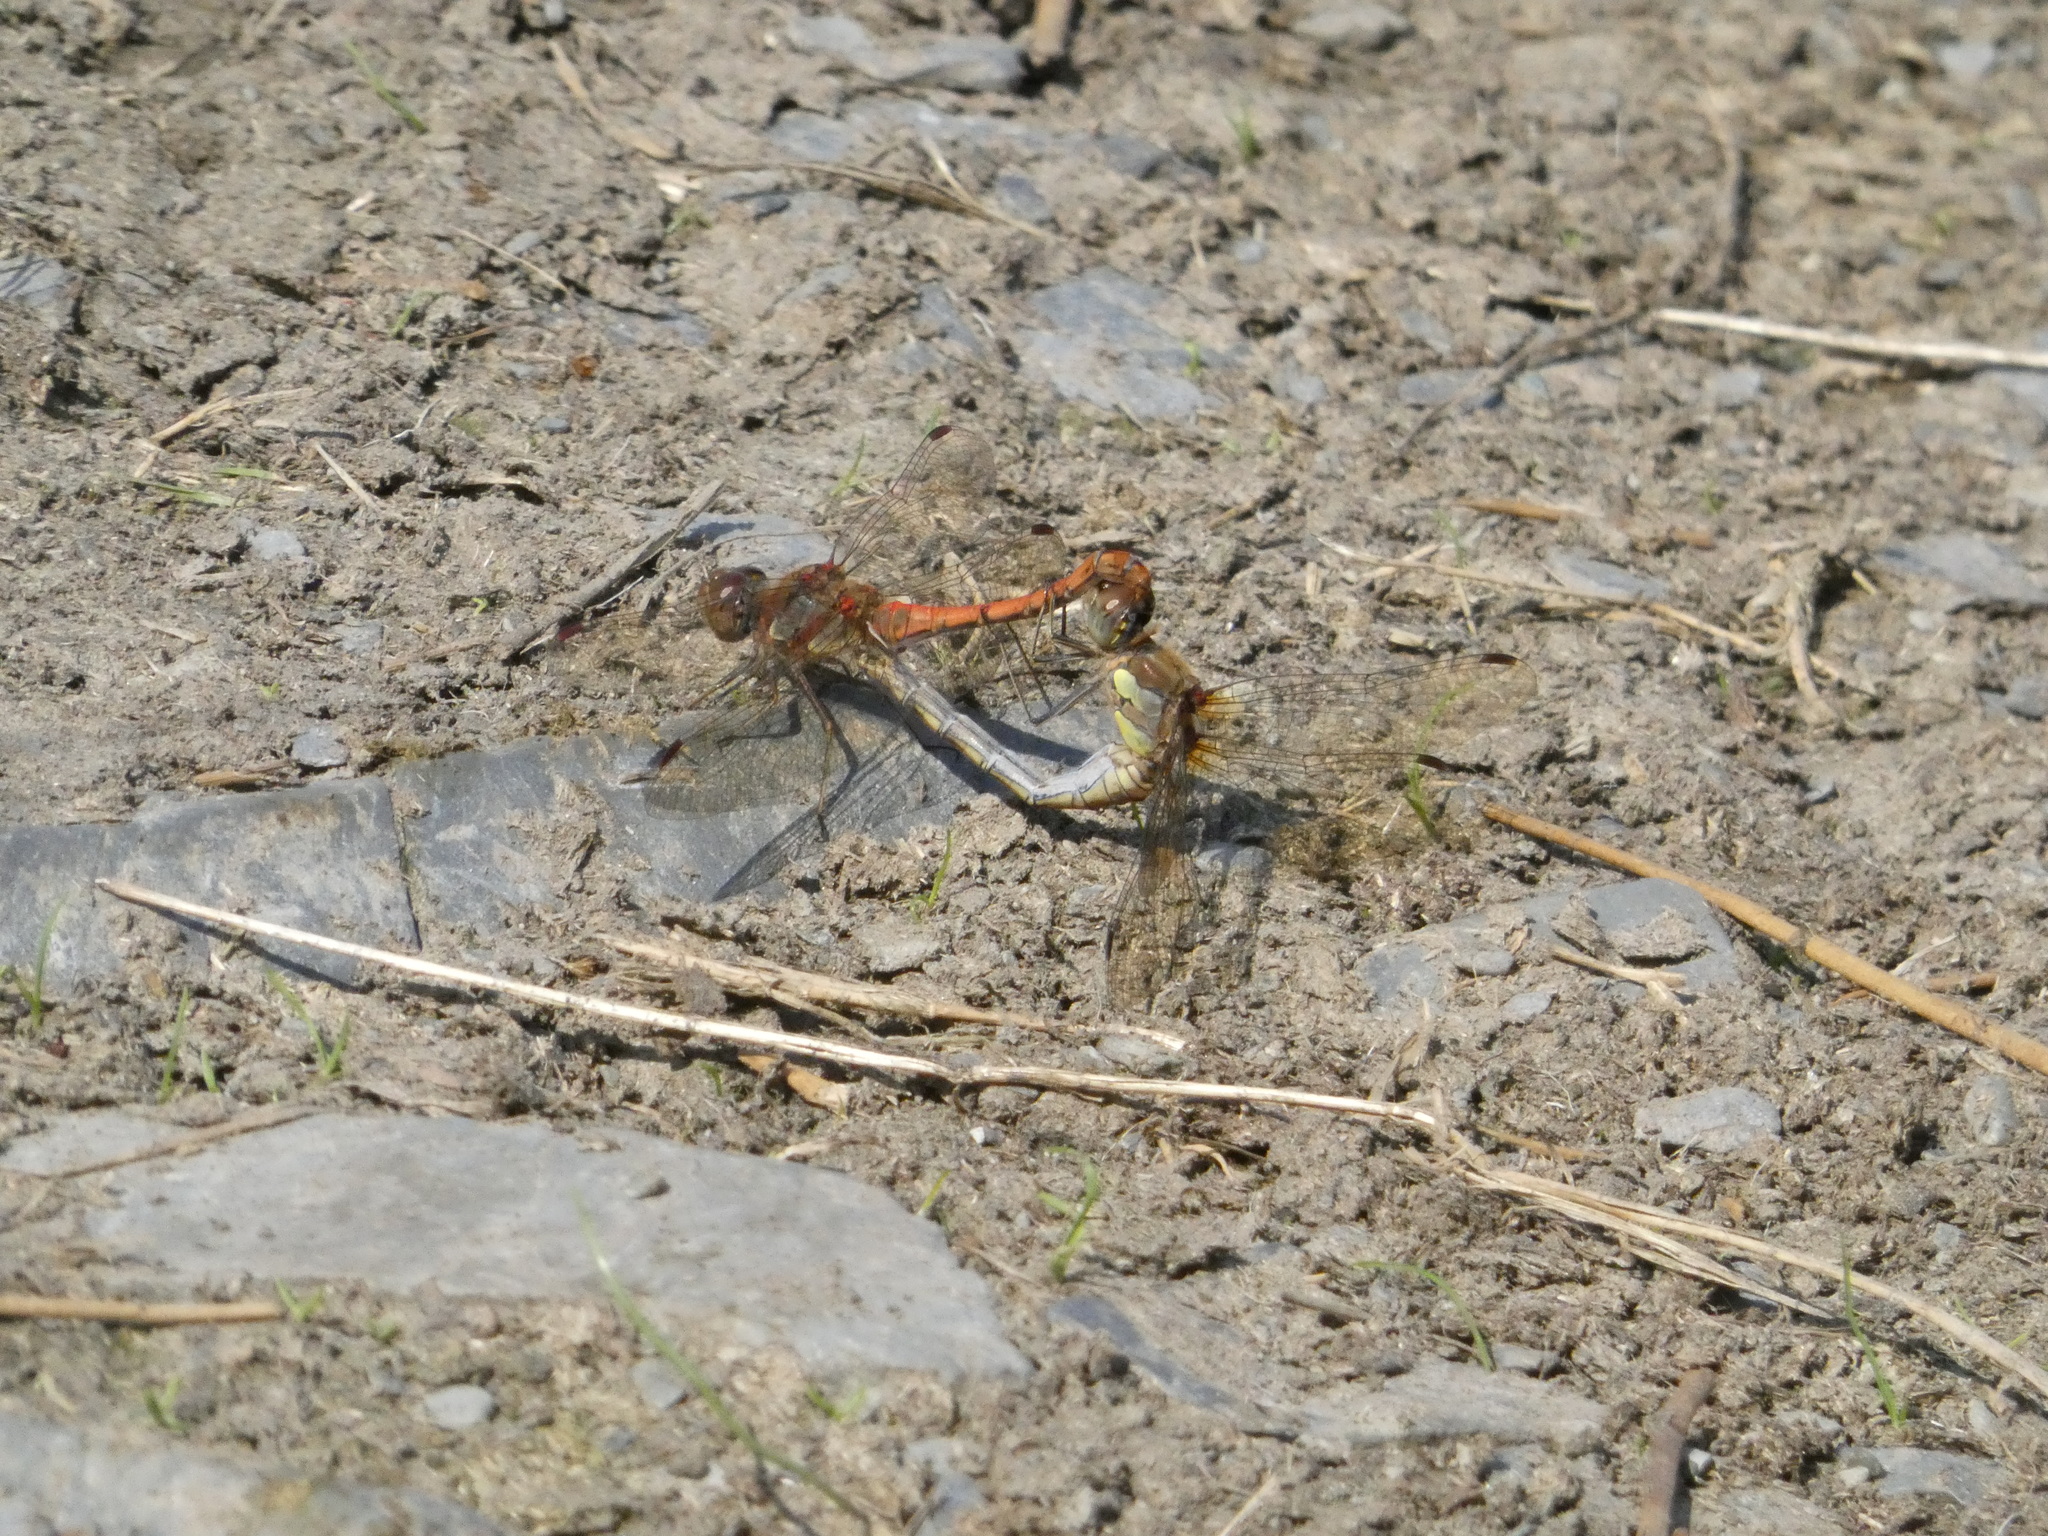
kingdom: Animalia
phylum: Arthropoda
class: Insecta
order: Odonata
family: Libellulidae
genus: Sympetrum
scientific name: Sympetrum striolatum
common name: Common darter
